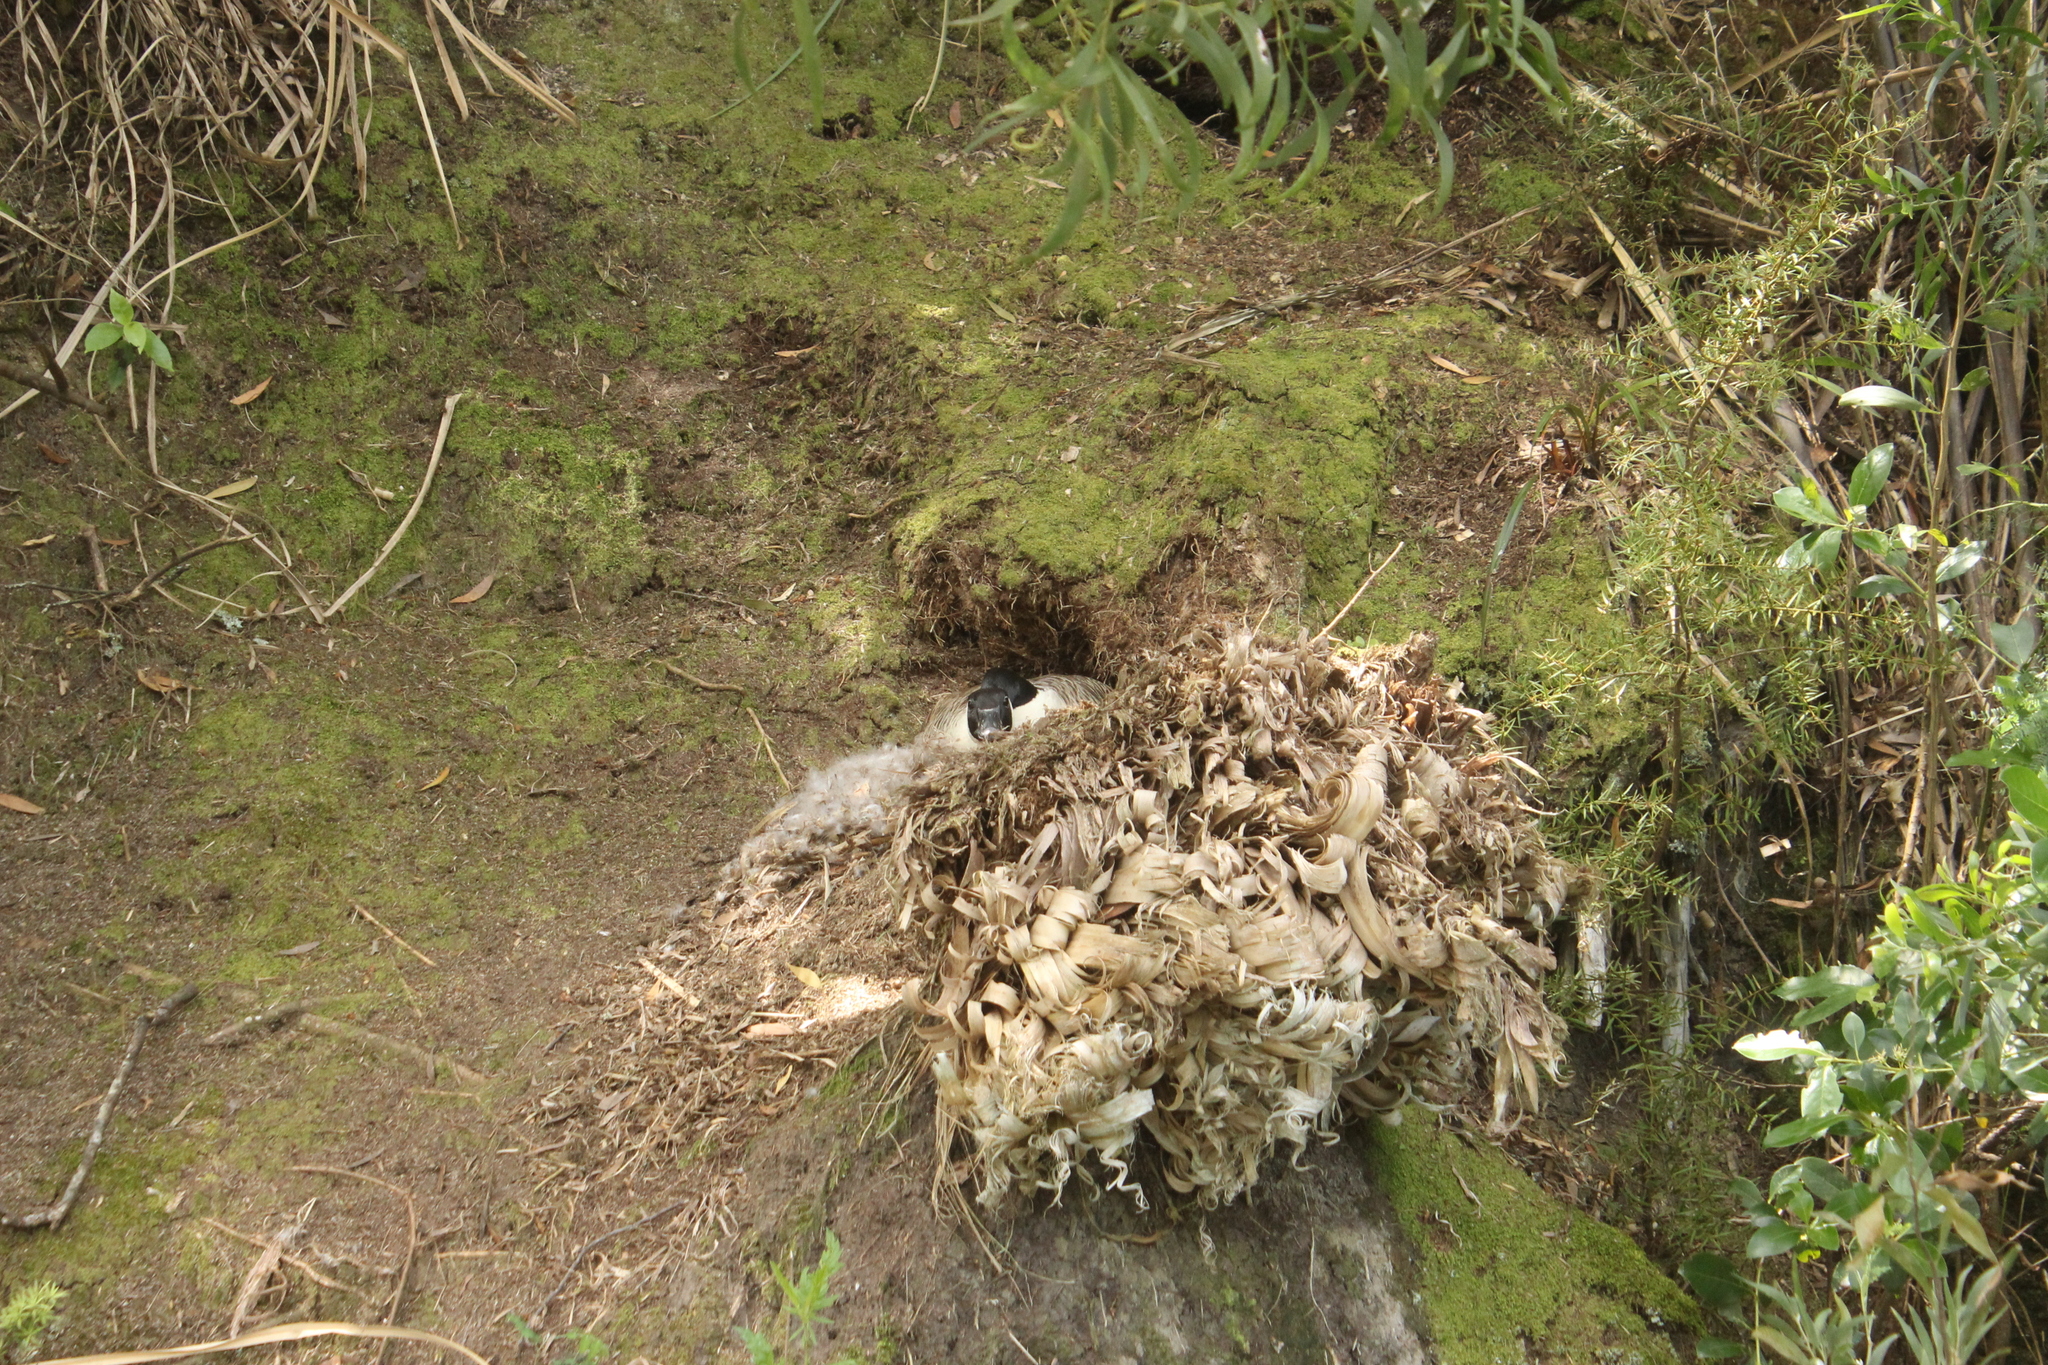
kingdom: Animalia
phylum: Chordata
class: Aves
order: Anseriformes
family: Anatidae
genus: Branta
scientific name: Branta canadensis
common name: Canada goose
